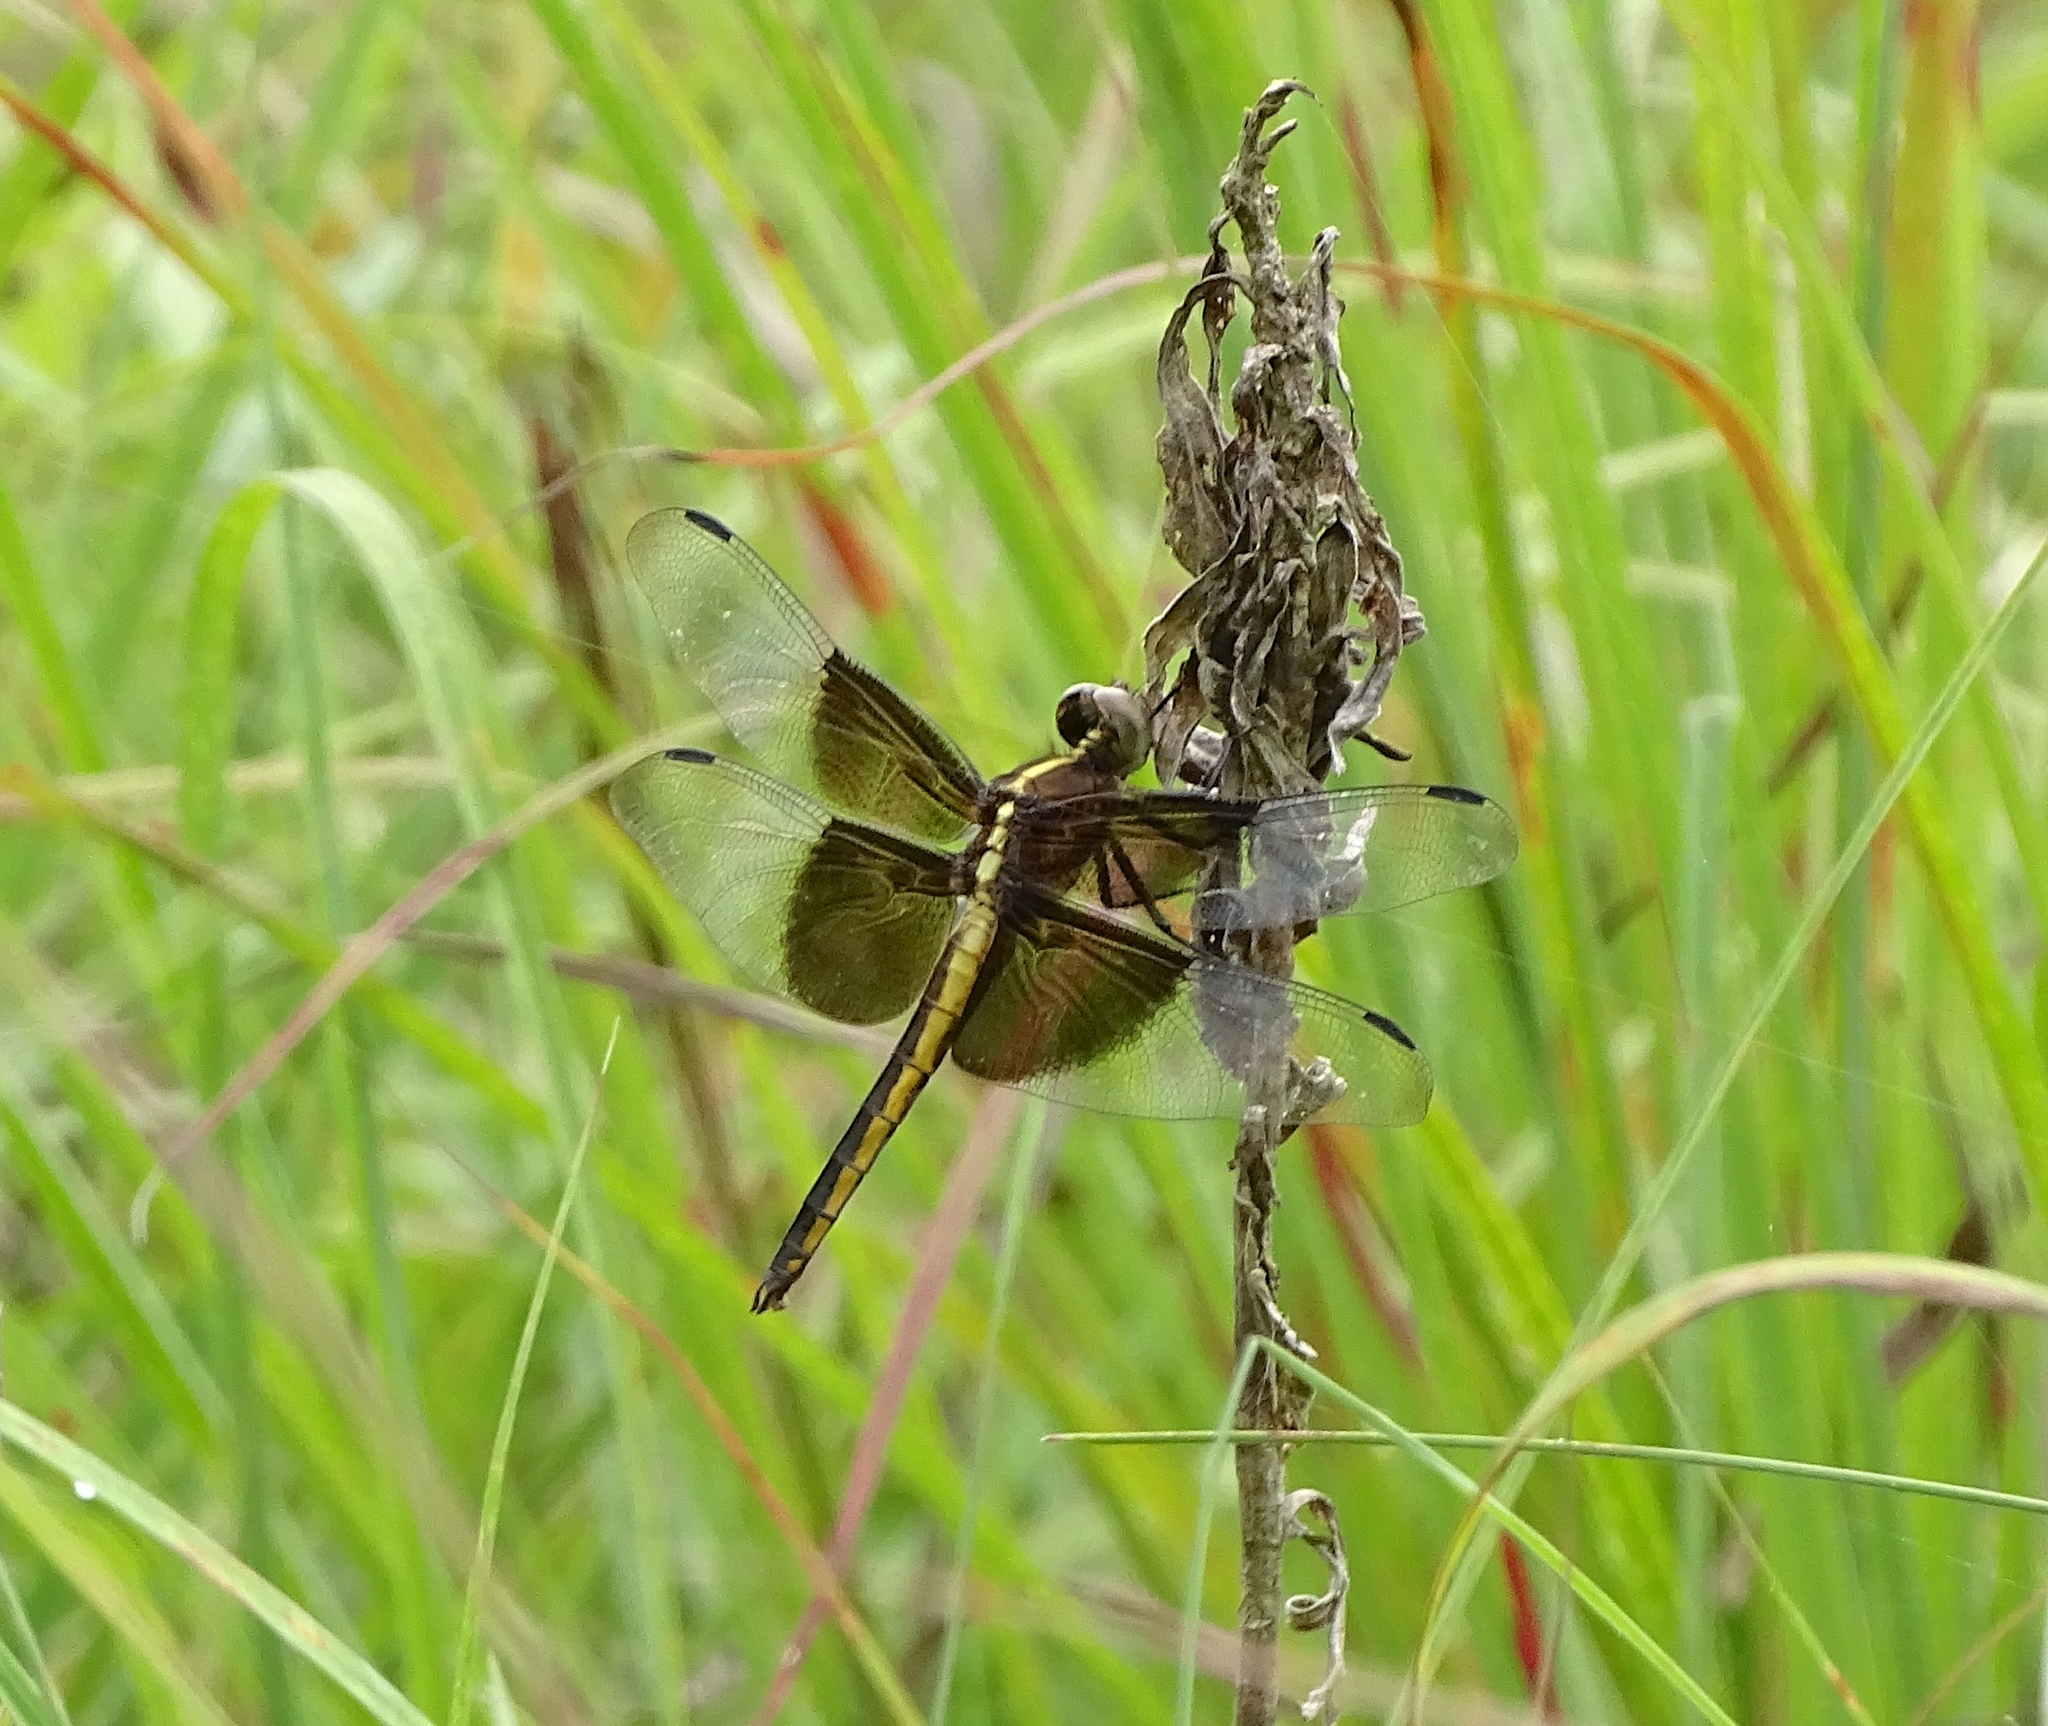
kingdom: Animalia
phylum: Arthropoda
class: Insecta
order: Odonata
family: Libellulidae
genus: Libellula
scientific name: Libellula luctuosa
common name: Widow skimmer
